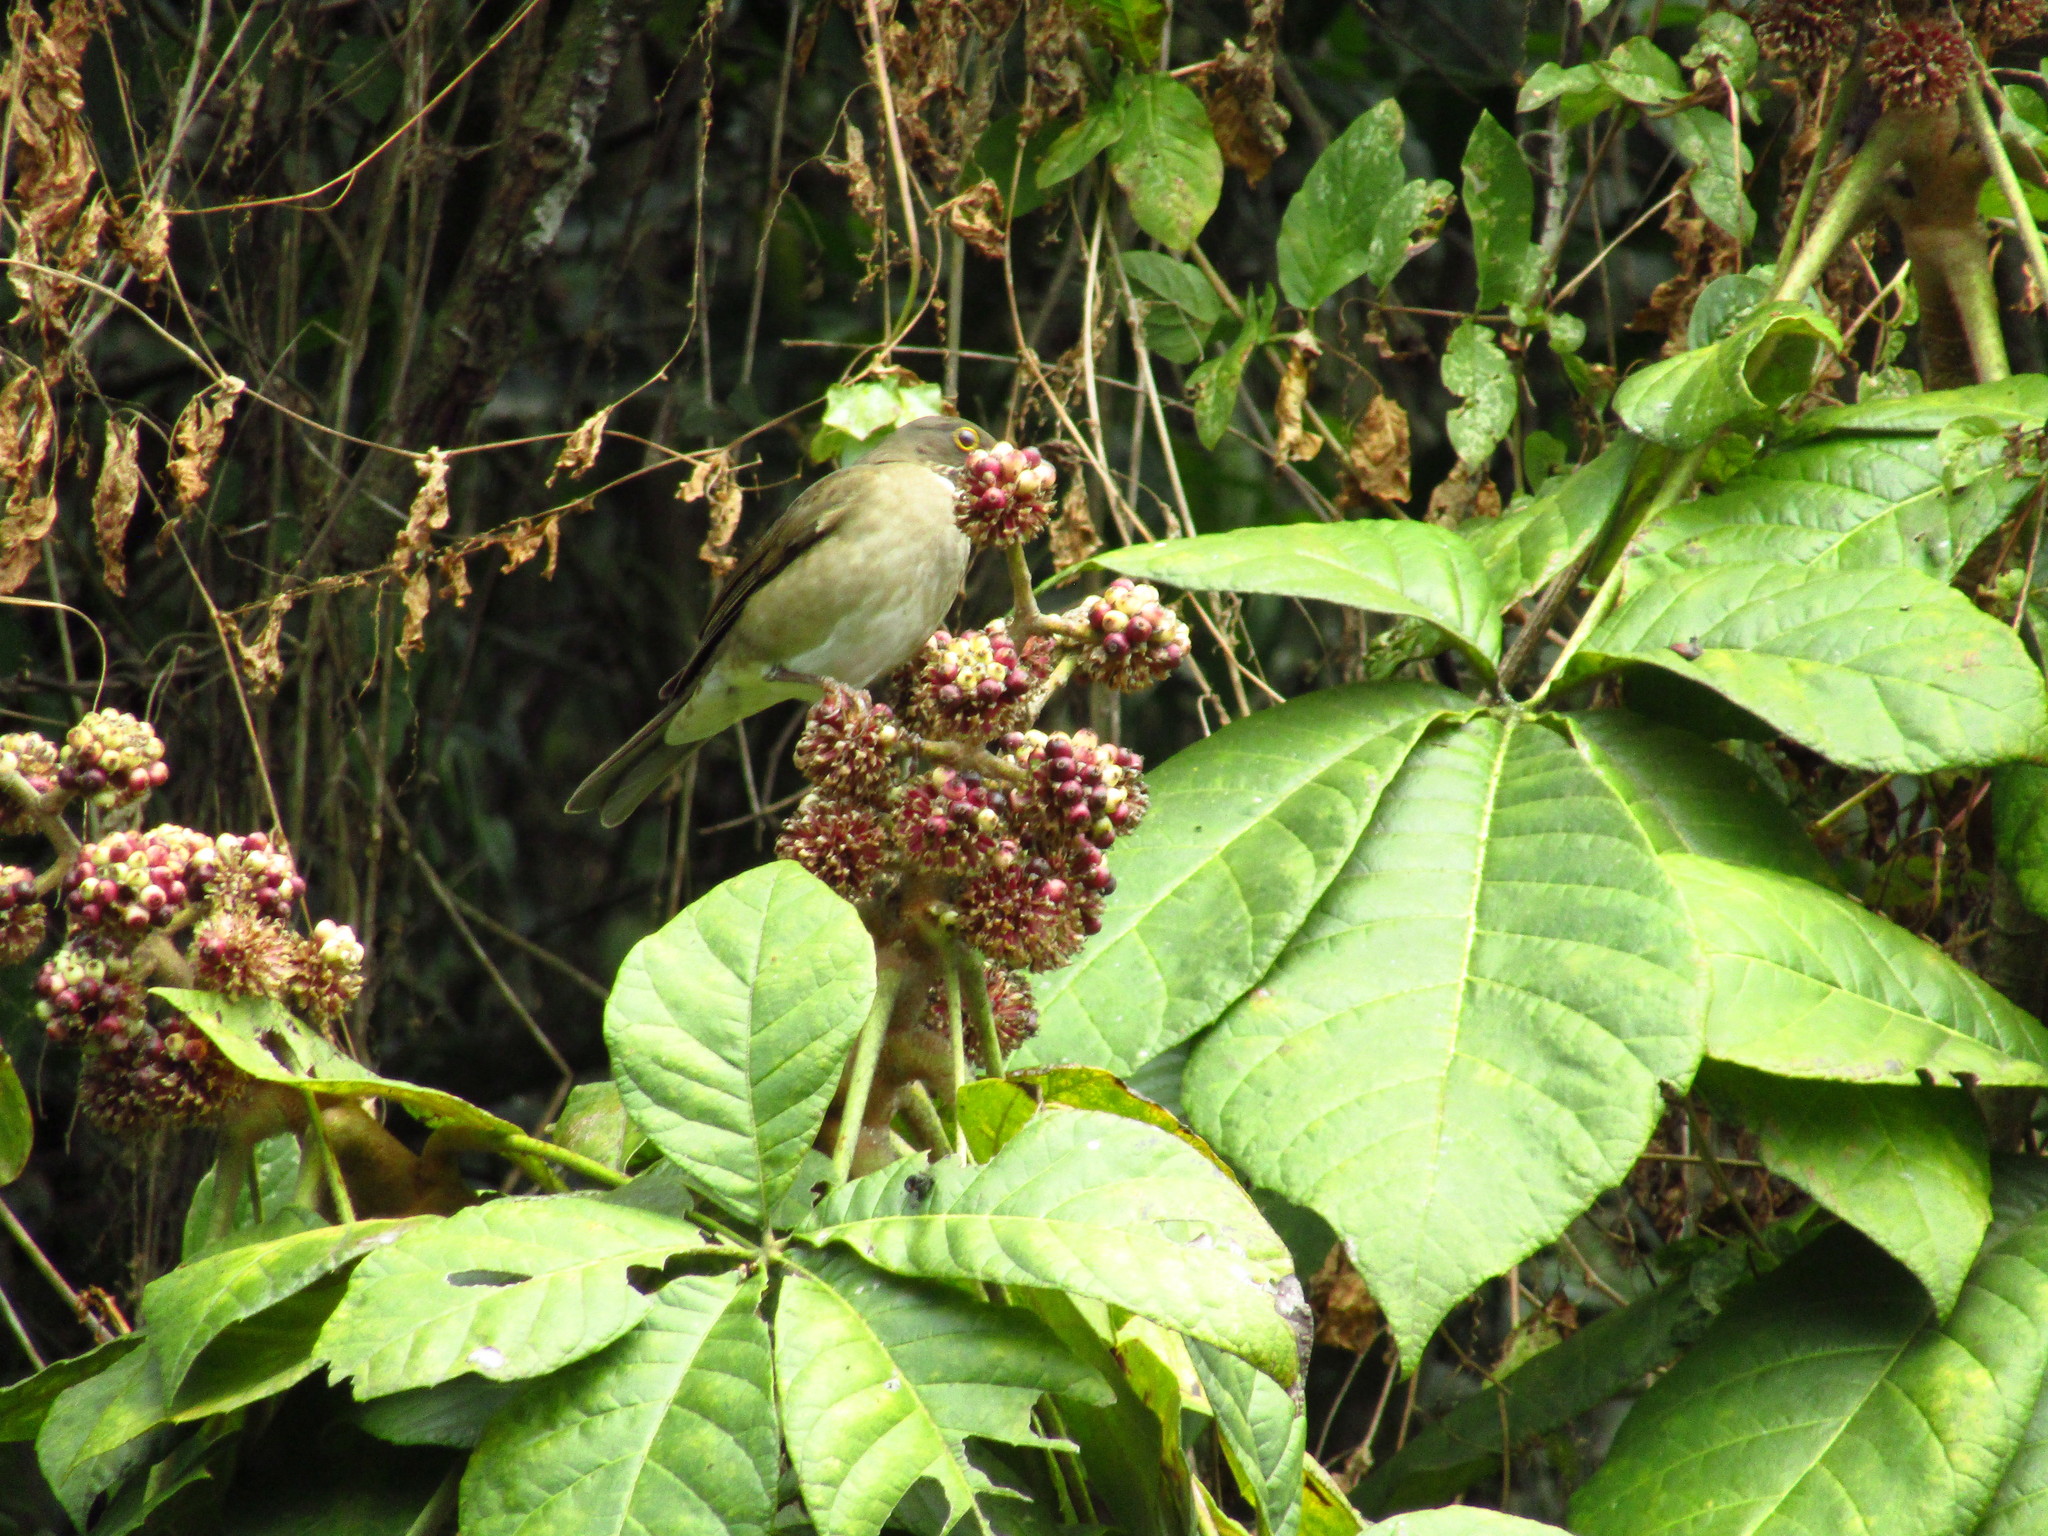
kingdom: Animalia
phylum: Chordata
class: Aves
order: Passeriformes
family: Turdidae
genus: Turdus
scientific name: Turdus assimilis
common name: White-throated thrush
